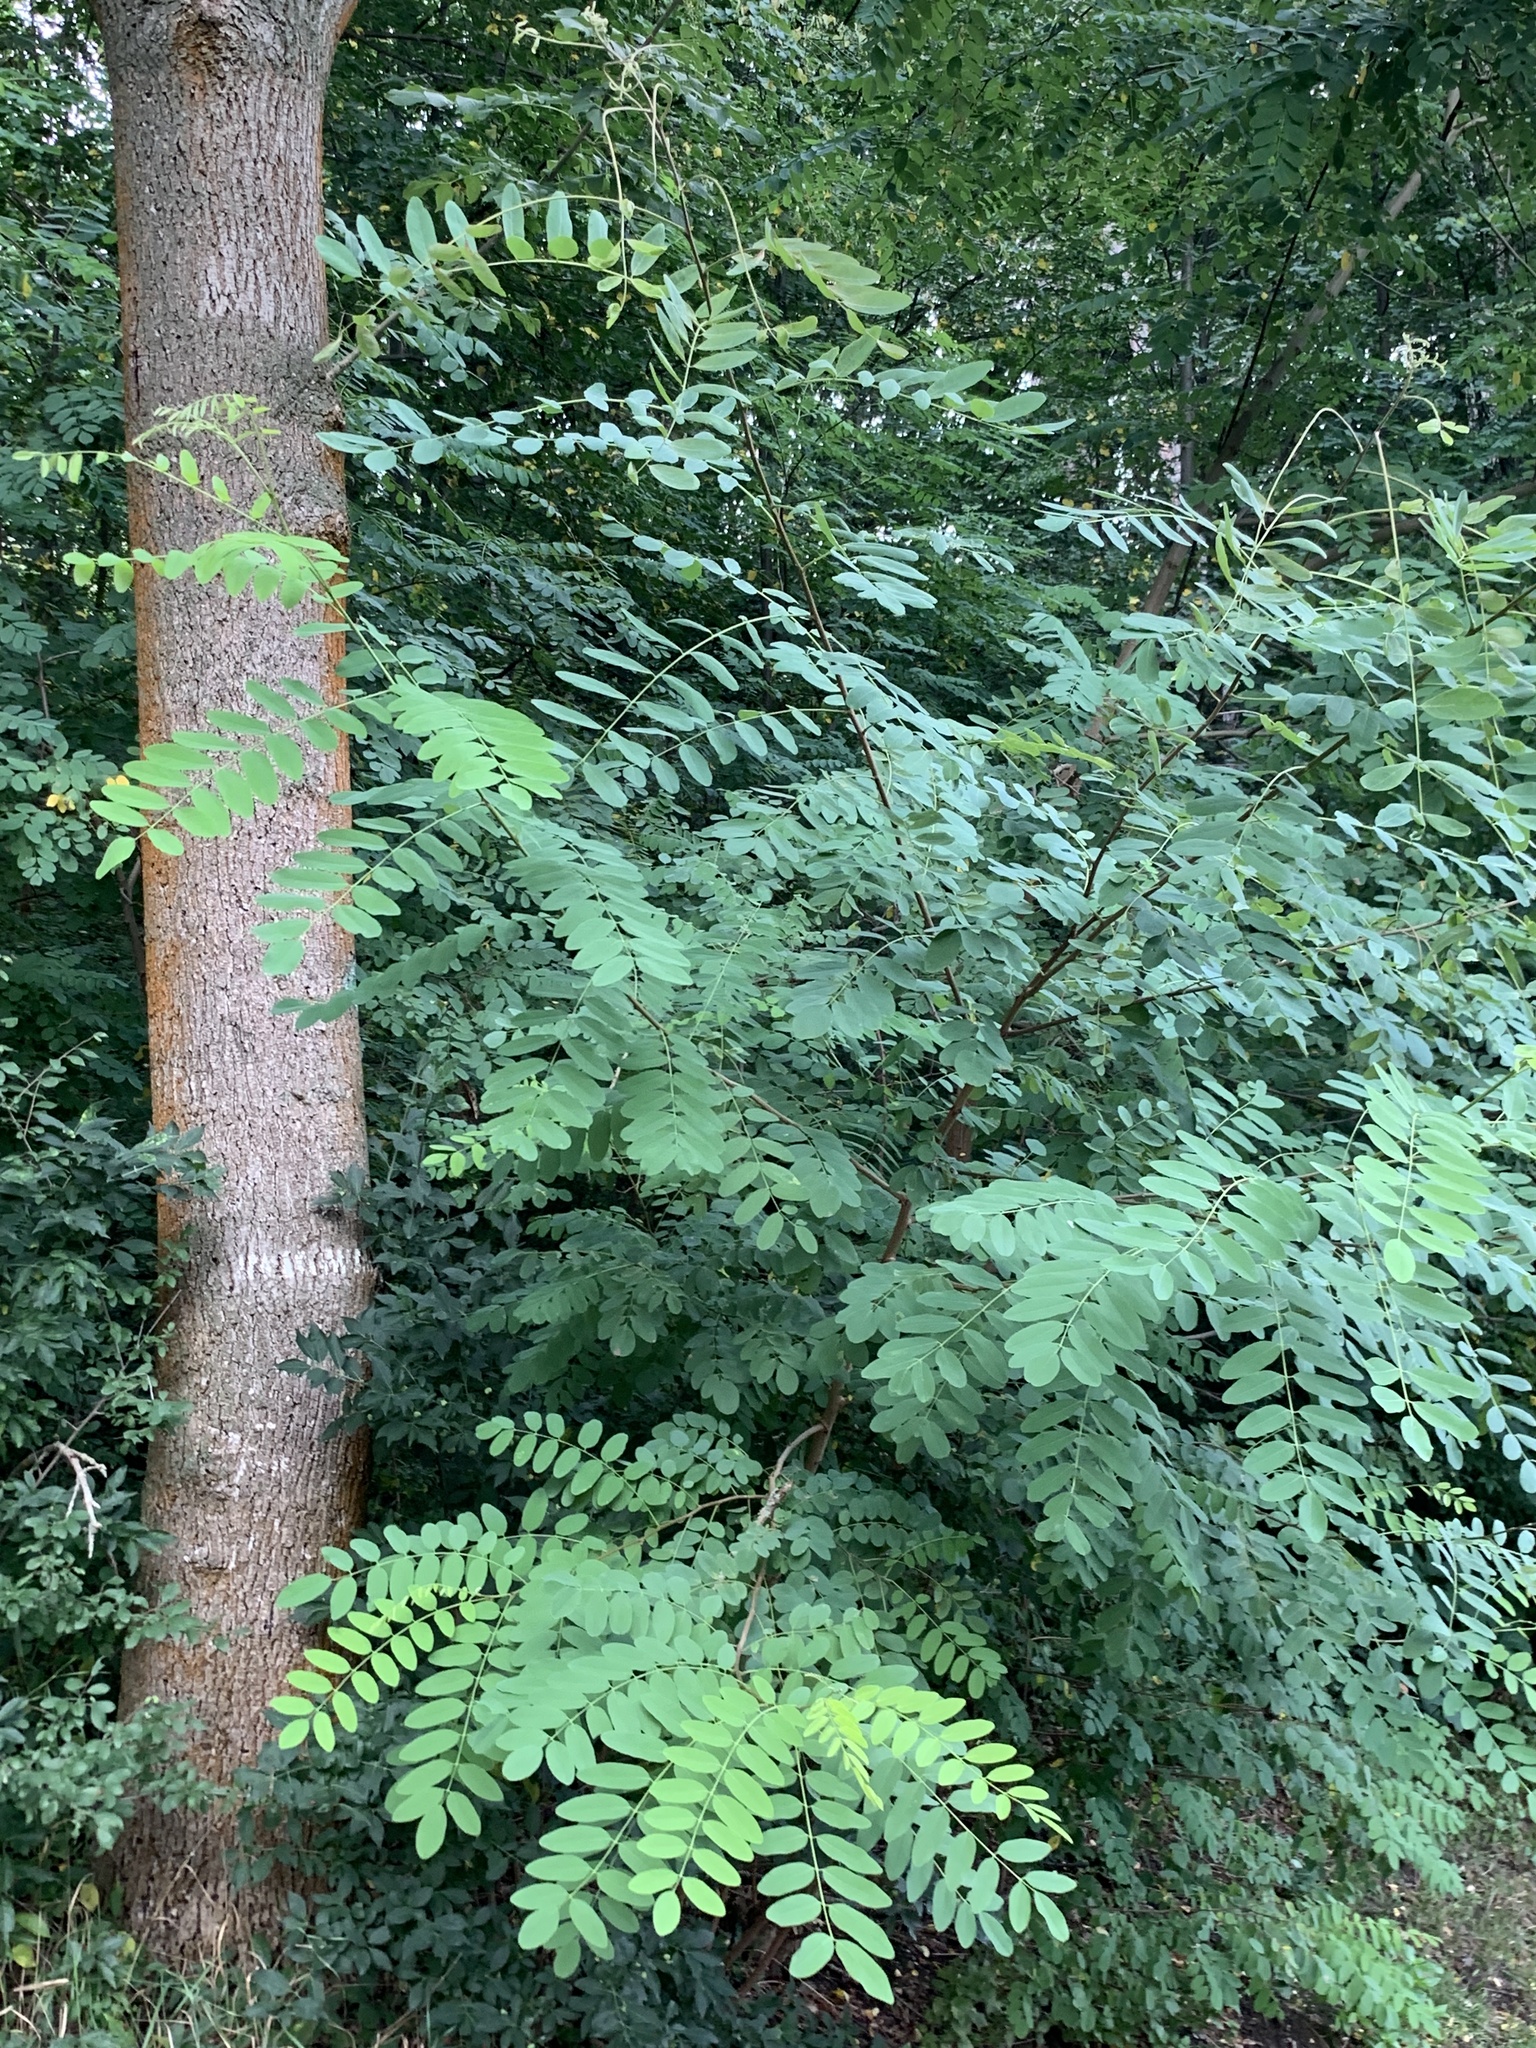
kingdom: Plantae
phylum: Tracheophyta
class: Magnoliopsida
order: Fabales
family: Fabaceae
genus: Robinia
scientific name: Robinia pseudoacacia
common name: Black locust
